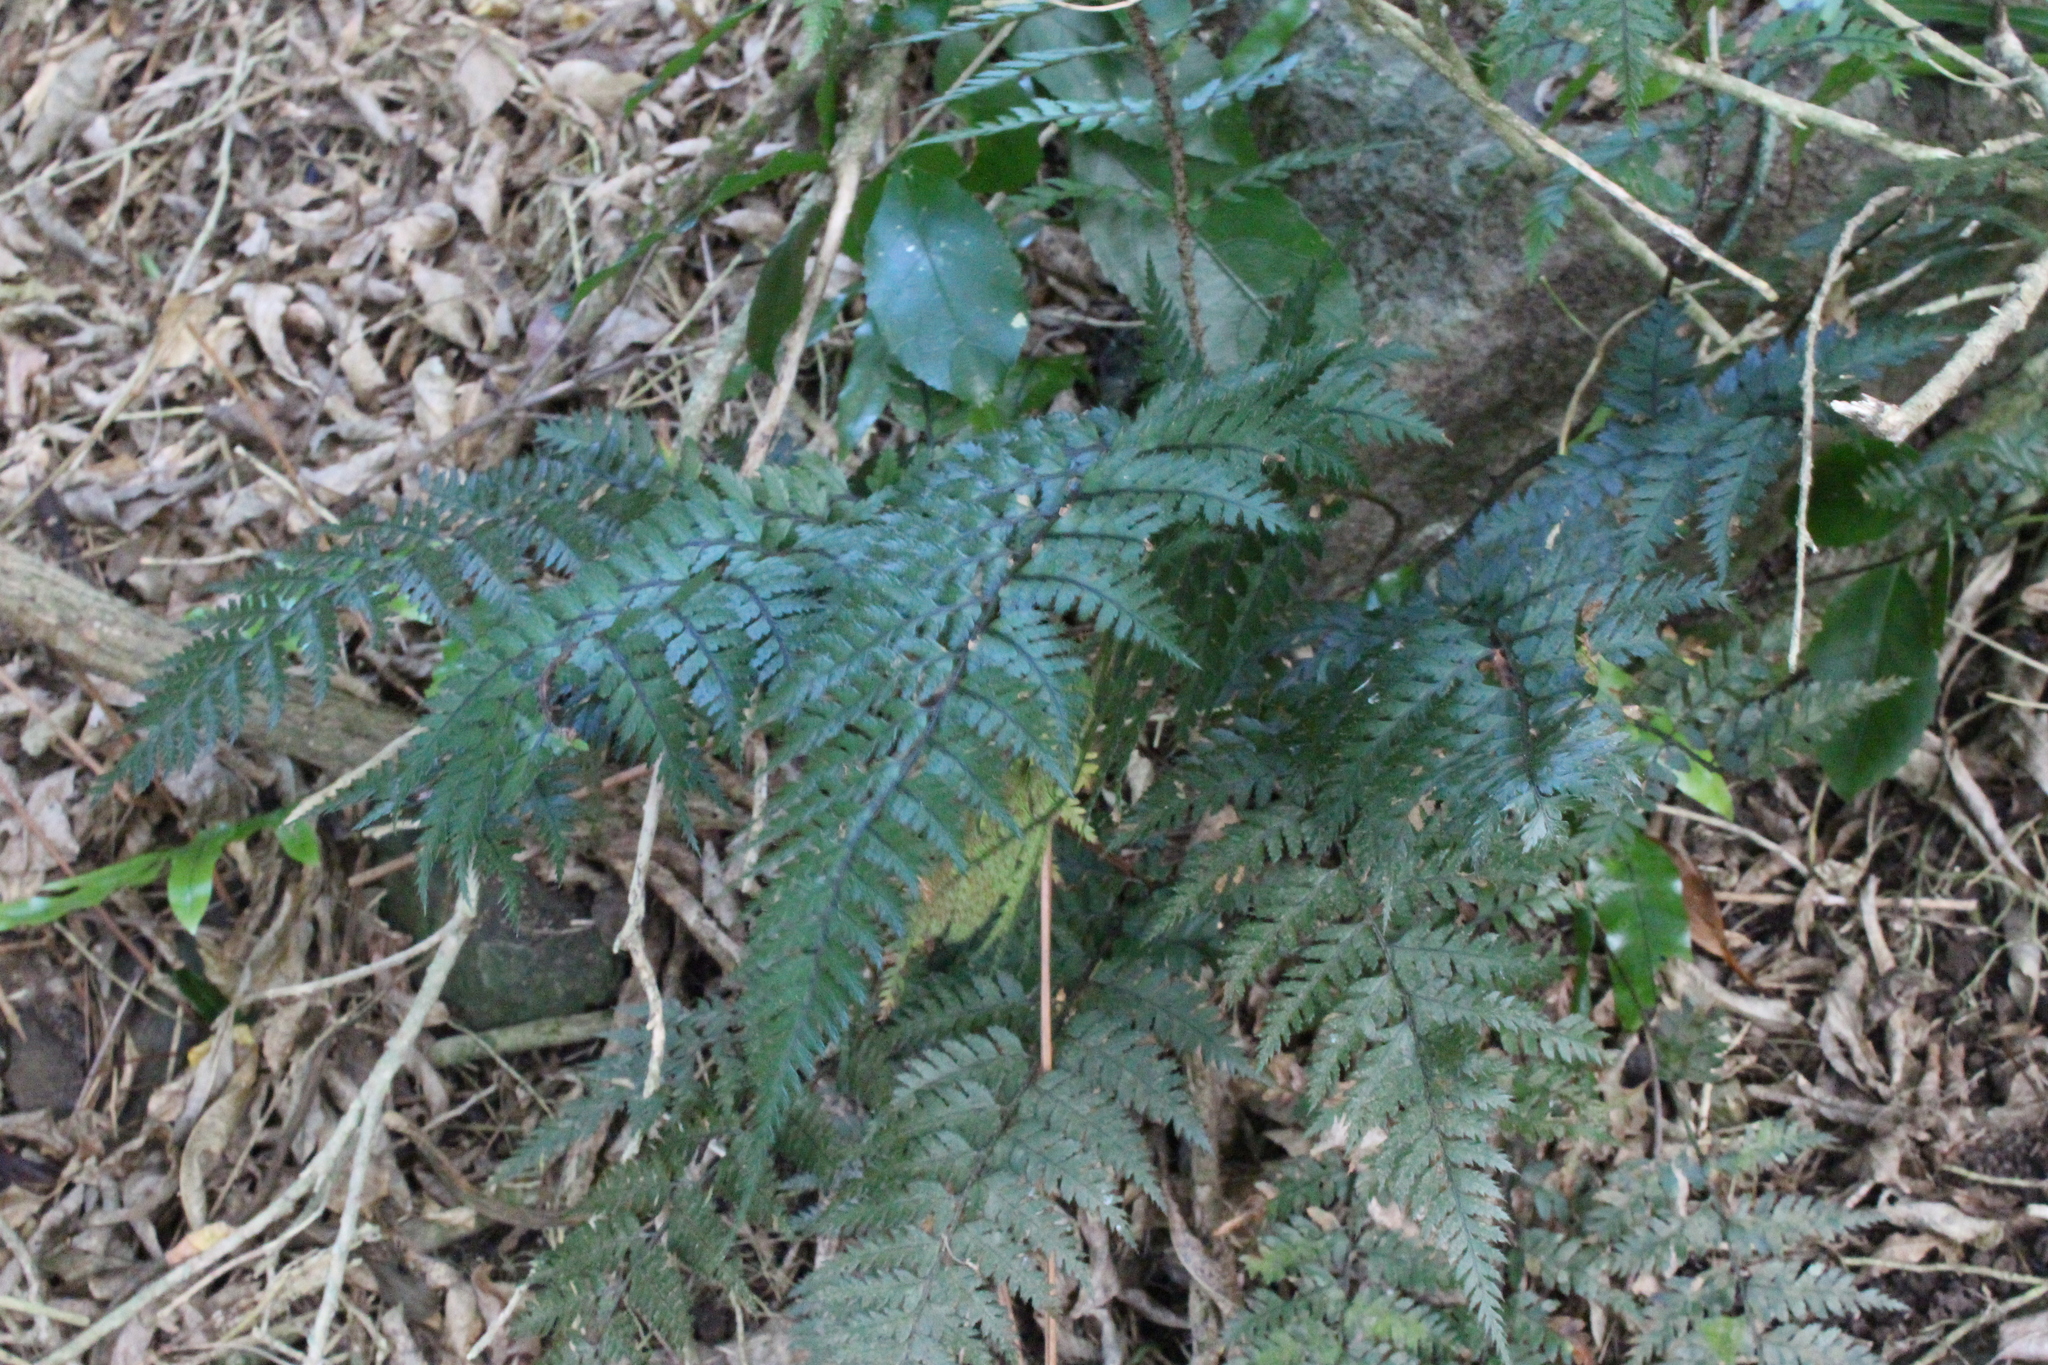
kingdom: Plantae
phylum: Tracheophyta
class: Polypodiopsida
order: Polypodiales
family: Dryopteridaceae
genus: Polystichum
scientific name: Polystichum neozelandicum
